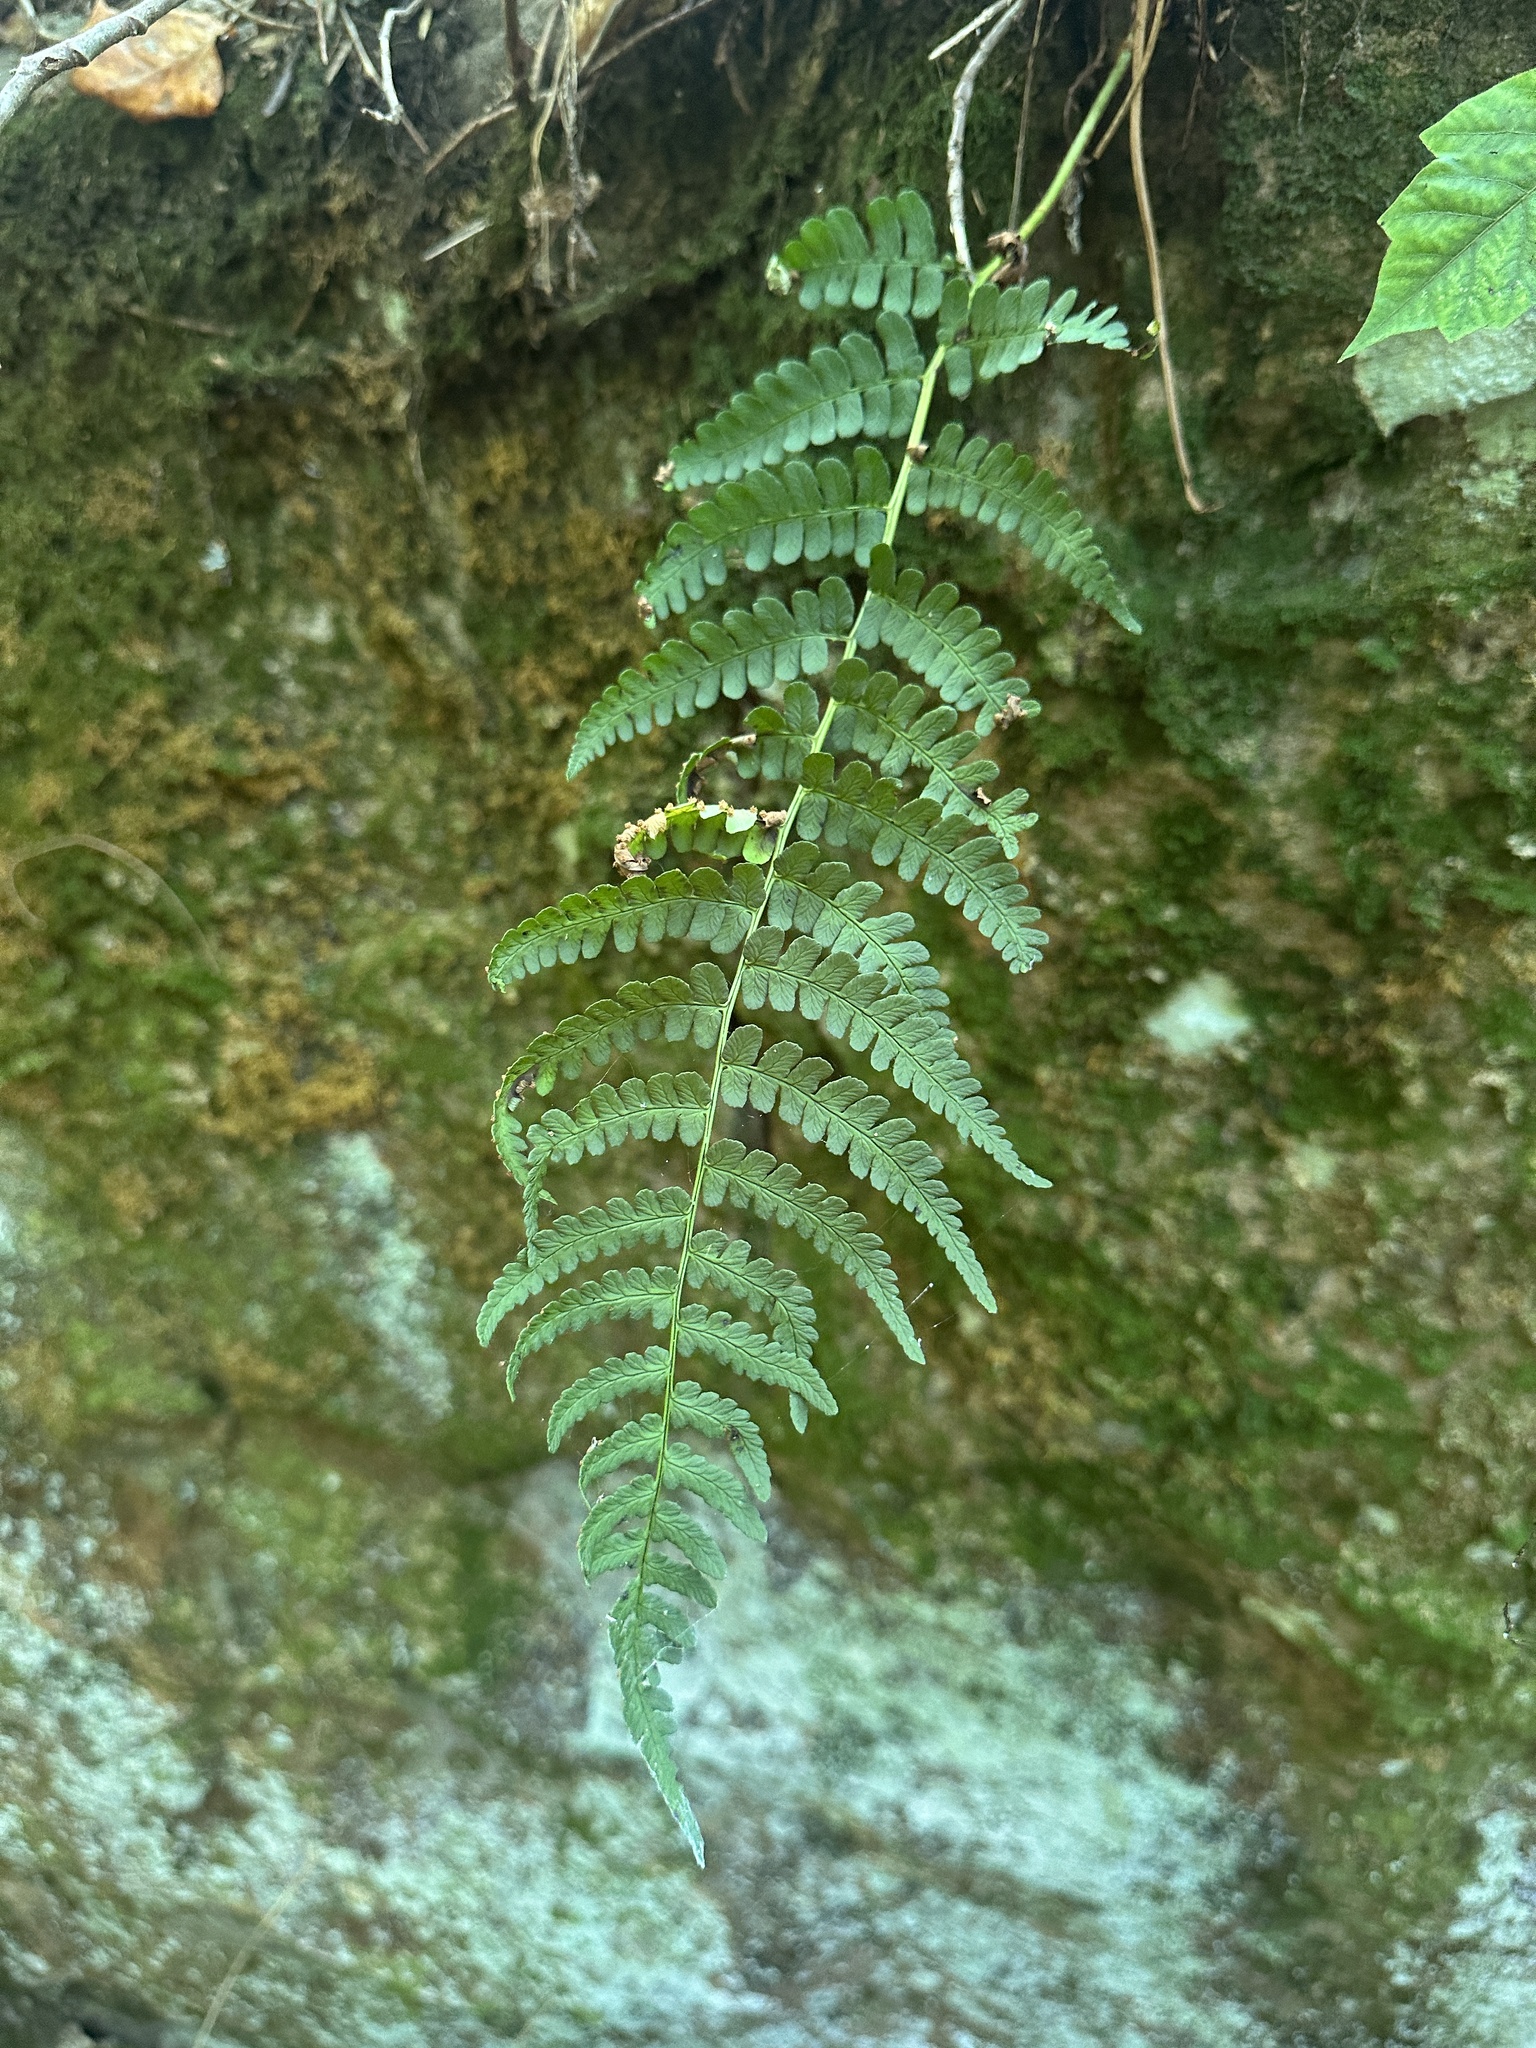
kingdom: Plantae
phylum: Tracheophyta
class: Polypodiopsida
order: Polypodiales
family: Dryopteridaceae
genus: Dryopteris
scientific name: Dryopteris marginalis
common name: Marginal wood fern
